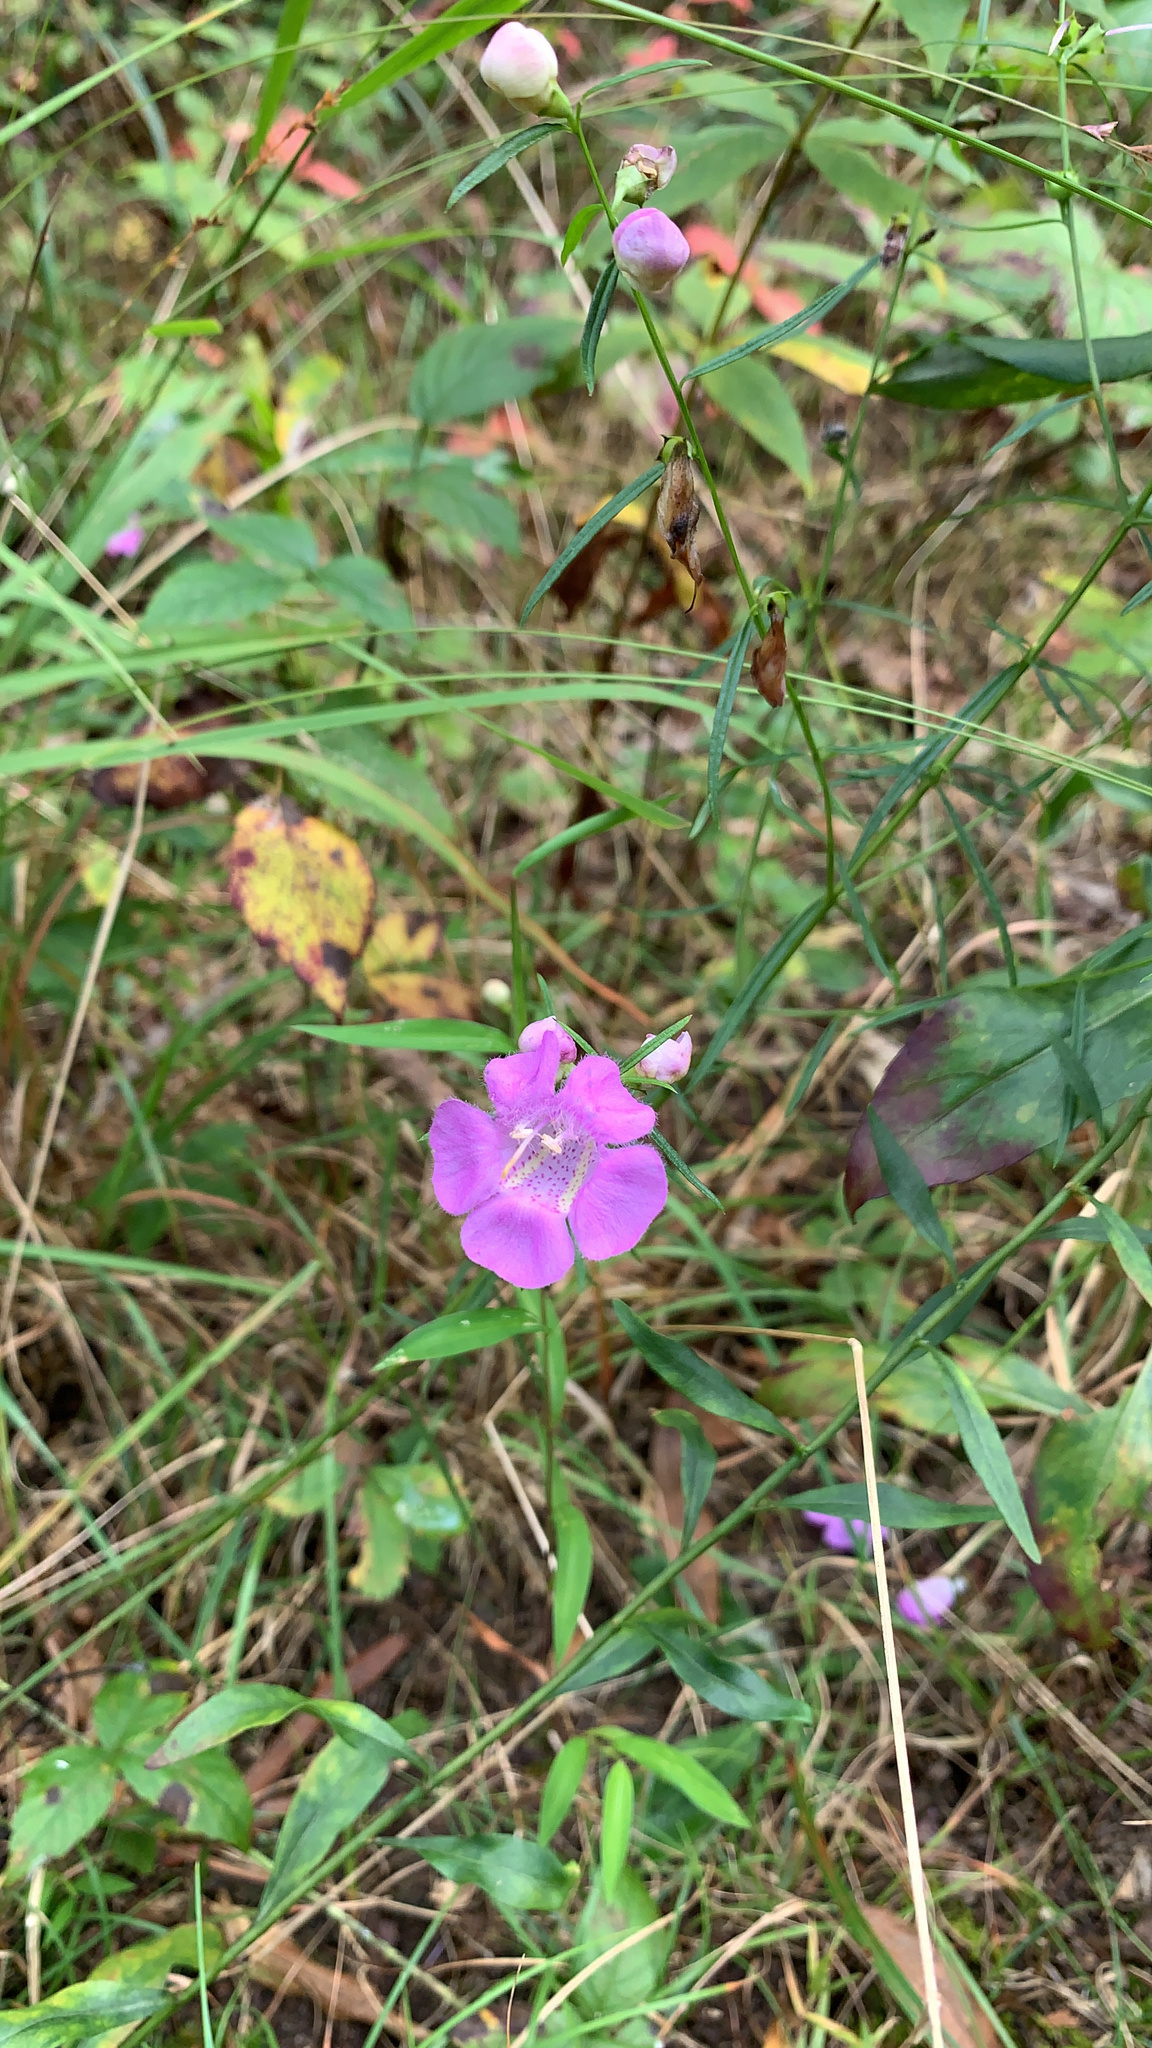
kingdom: Plantae
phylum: Tracheophyta
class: Magnoliopsida
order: Lamiales
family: Orobanchaceae
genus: Agalinis
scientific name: Agalinis purpurea
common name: Purple false foxglove
